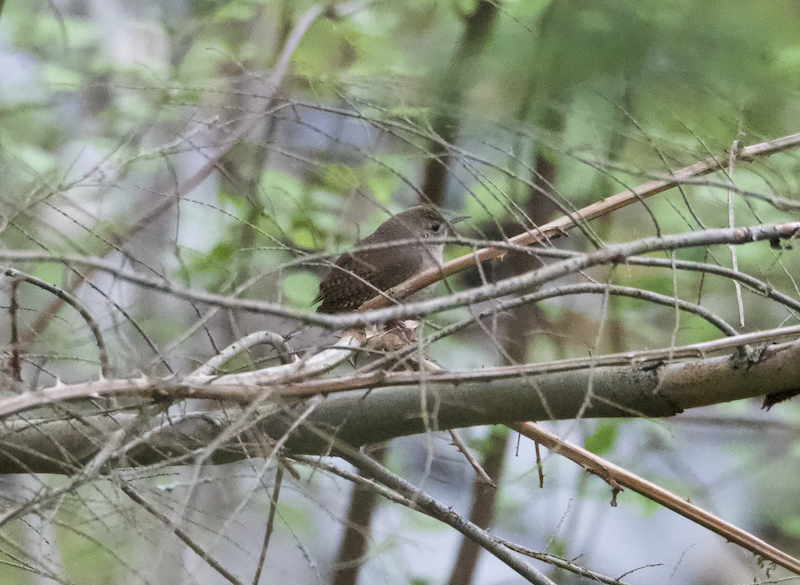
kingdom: Animalia
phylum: Chordata
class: Aves
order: Passeriformes
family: Troglodytidae
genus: Troglodytes
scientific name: Troglodytes aedon
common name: House wren
